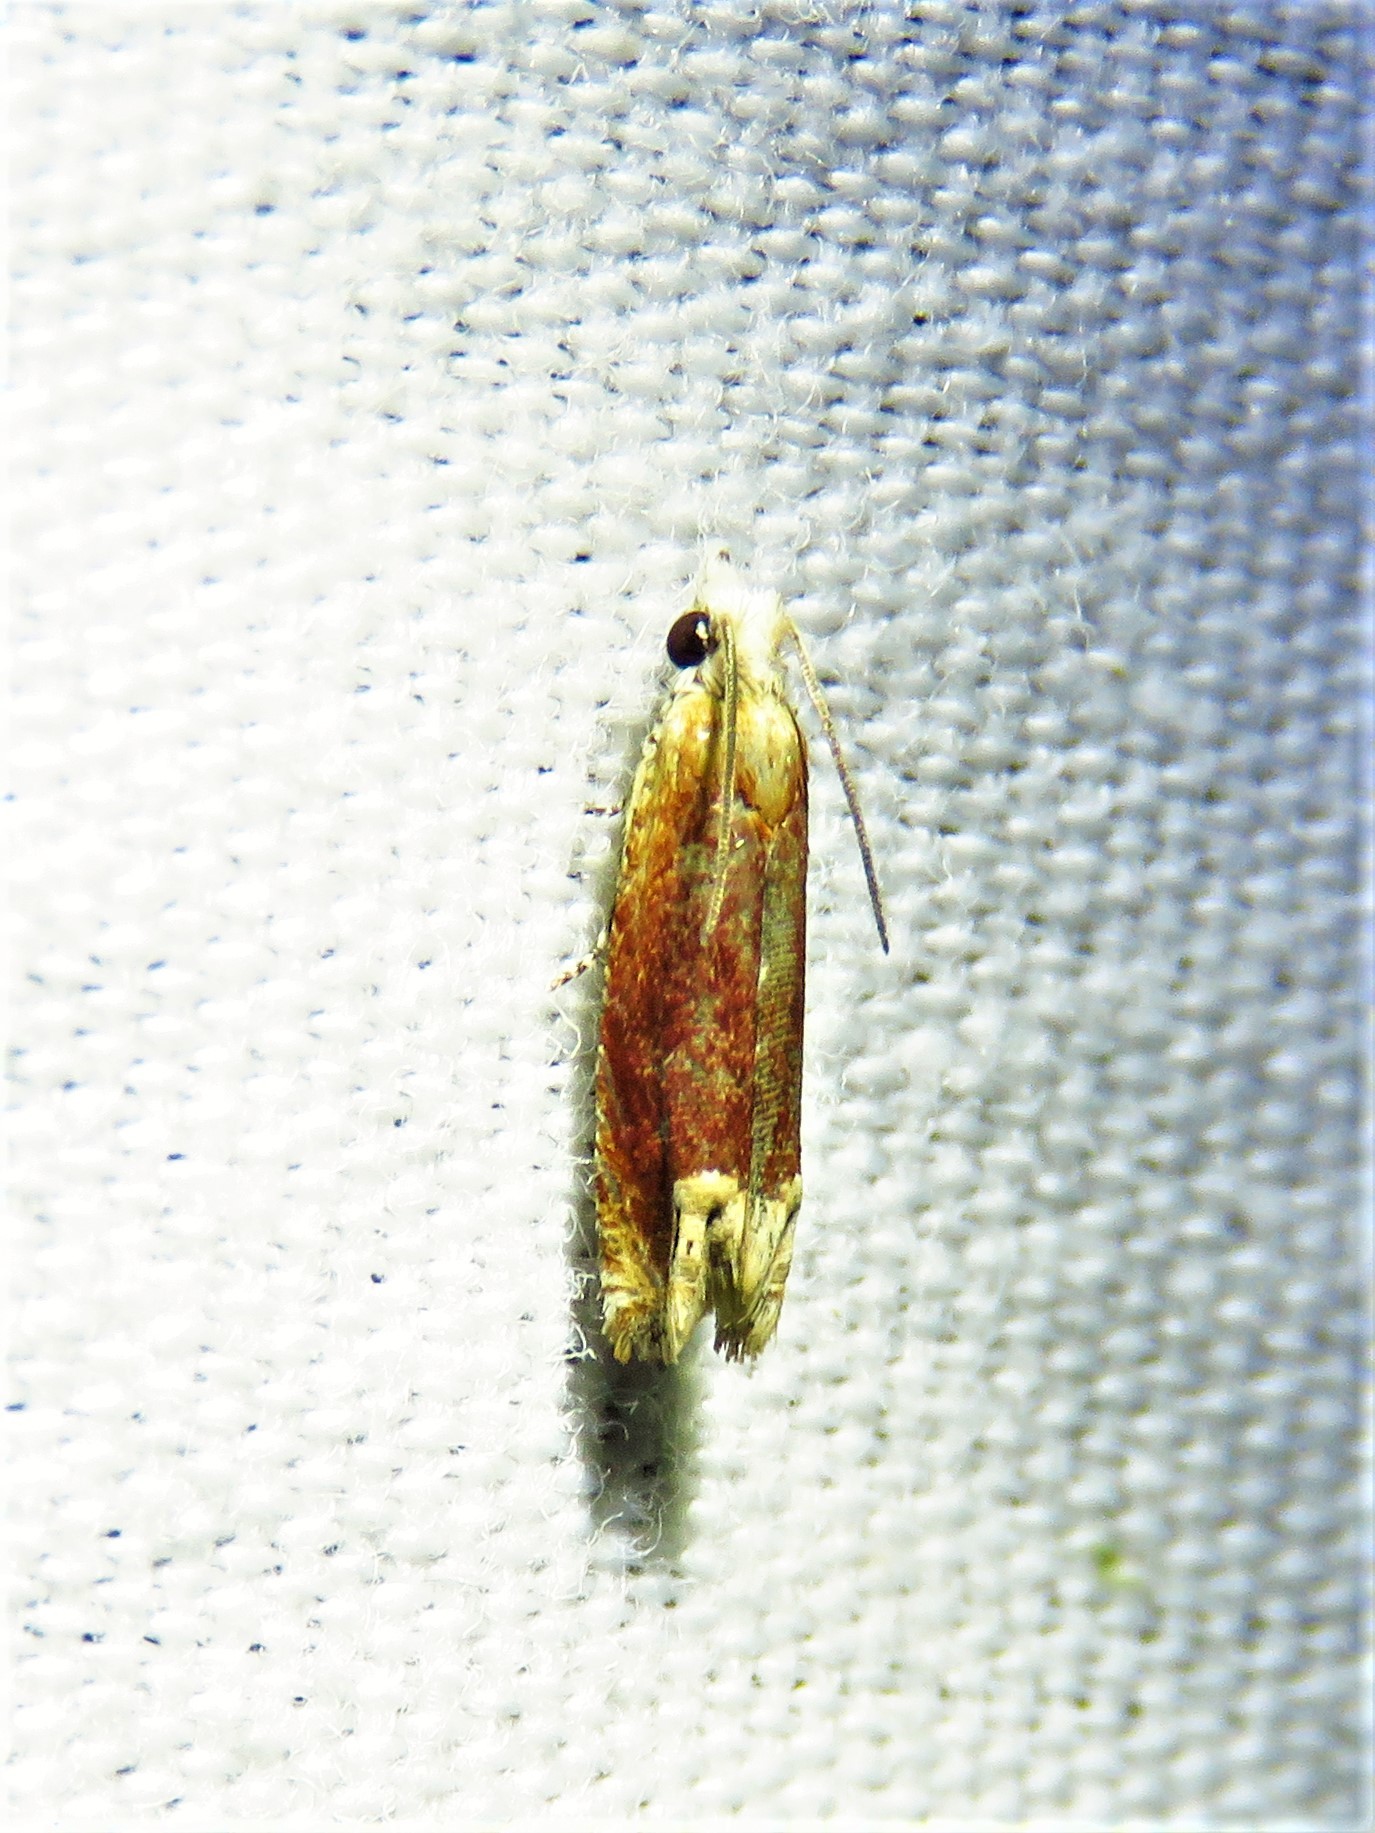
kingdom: Animalia
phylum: Arthropoda
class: Insecta
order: Lepidoptera
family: Tortricidae
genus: Eucosma
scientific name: Eucosma raracana
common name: Reddish eucosma moth
